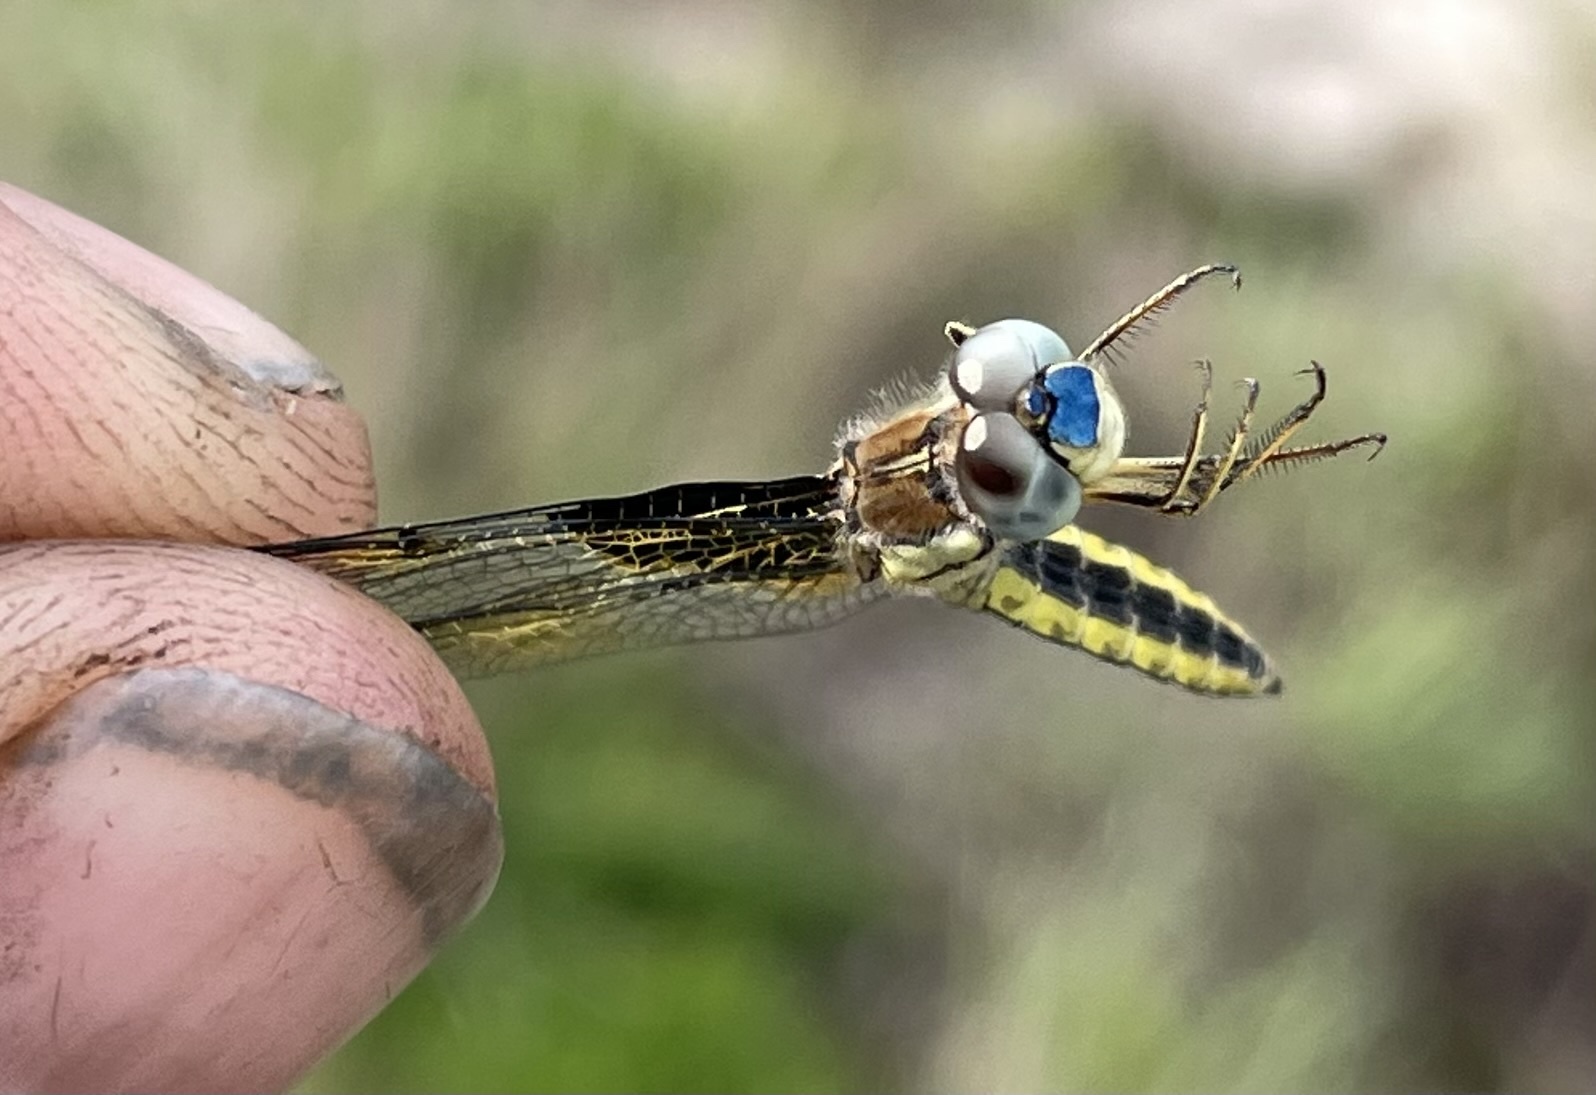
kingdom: Animalia
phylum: Arthropoda
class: Insecta
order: Odonata
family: Libellulidae
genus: Palpopleura
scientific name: Palpopleura jucunda
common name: Yellow-veined widow
